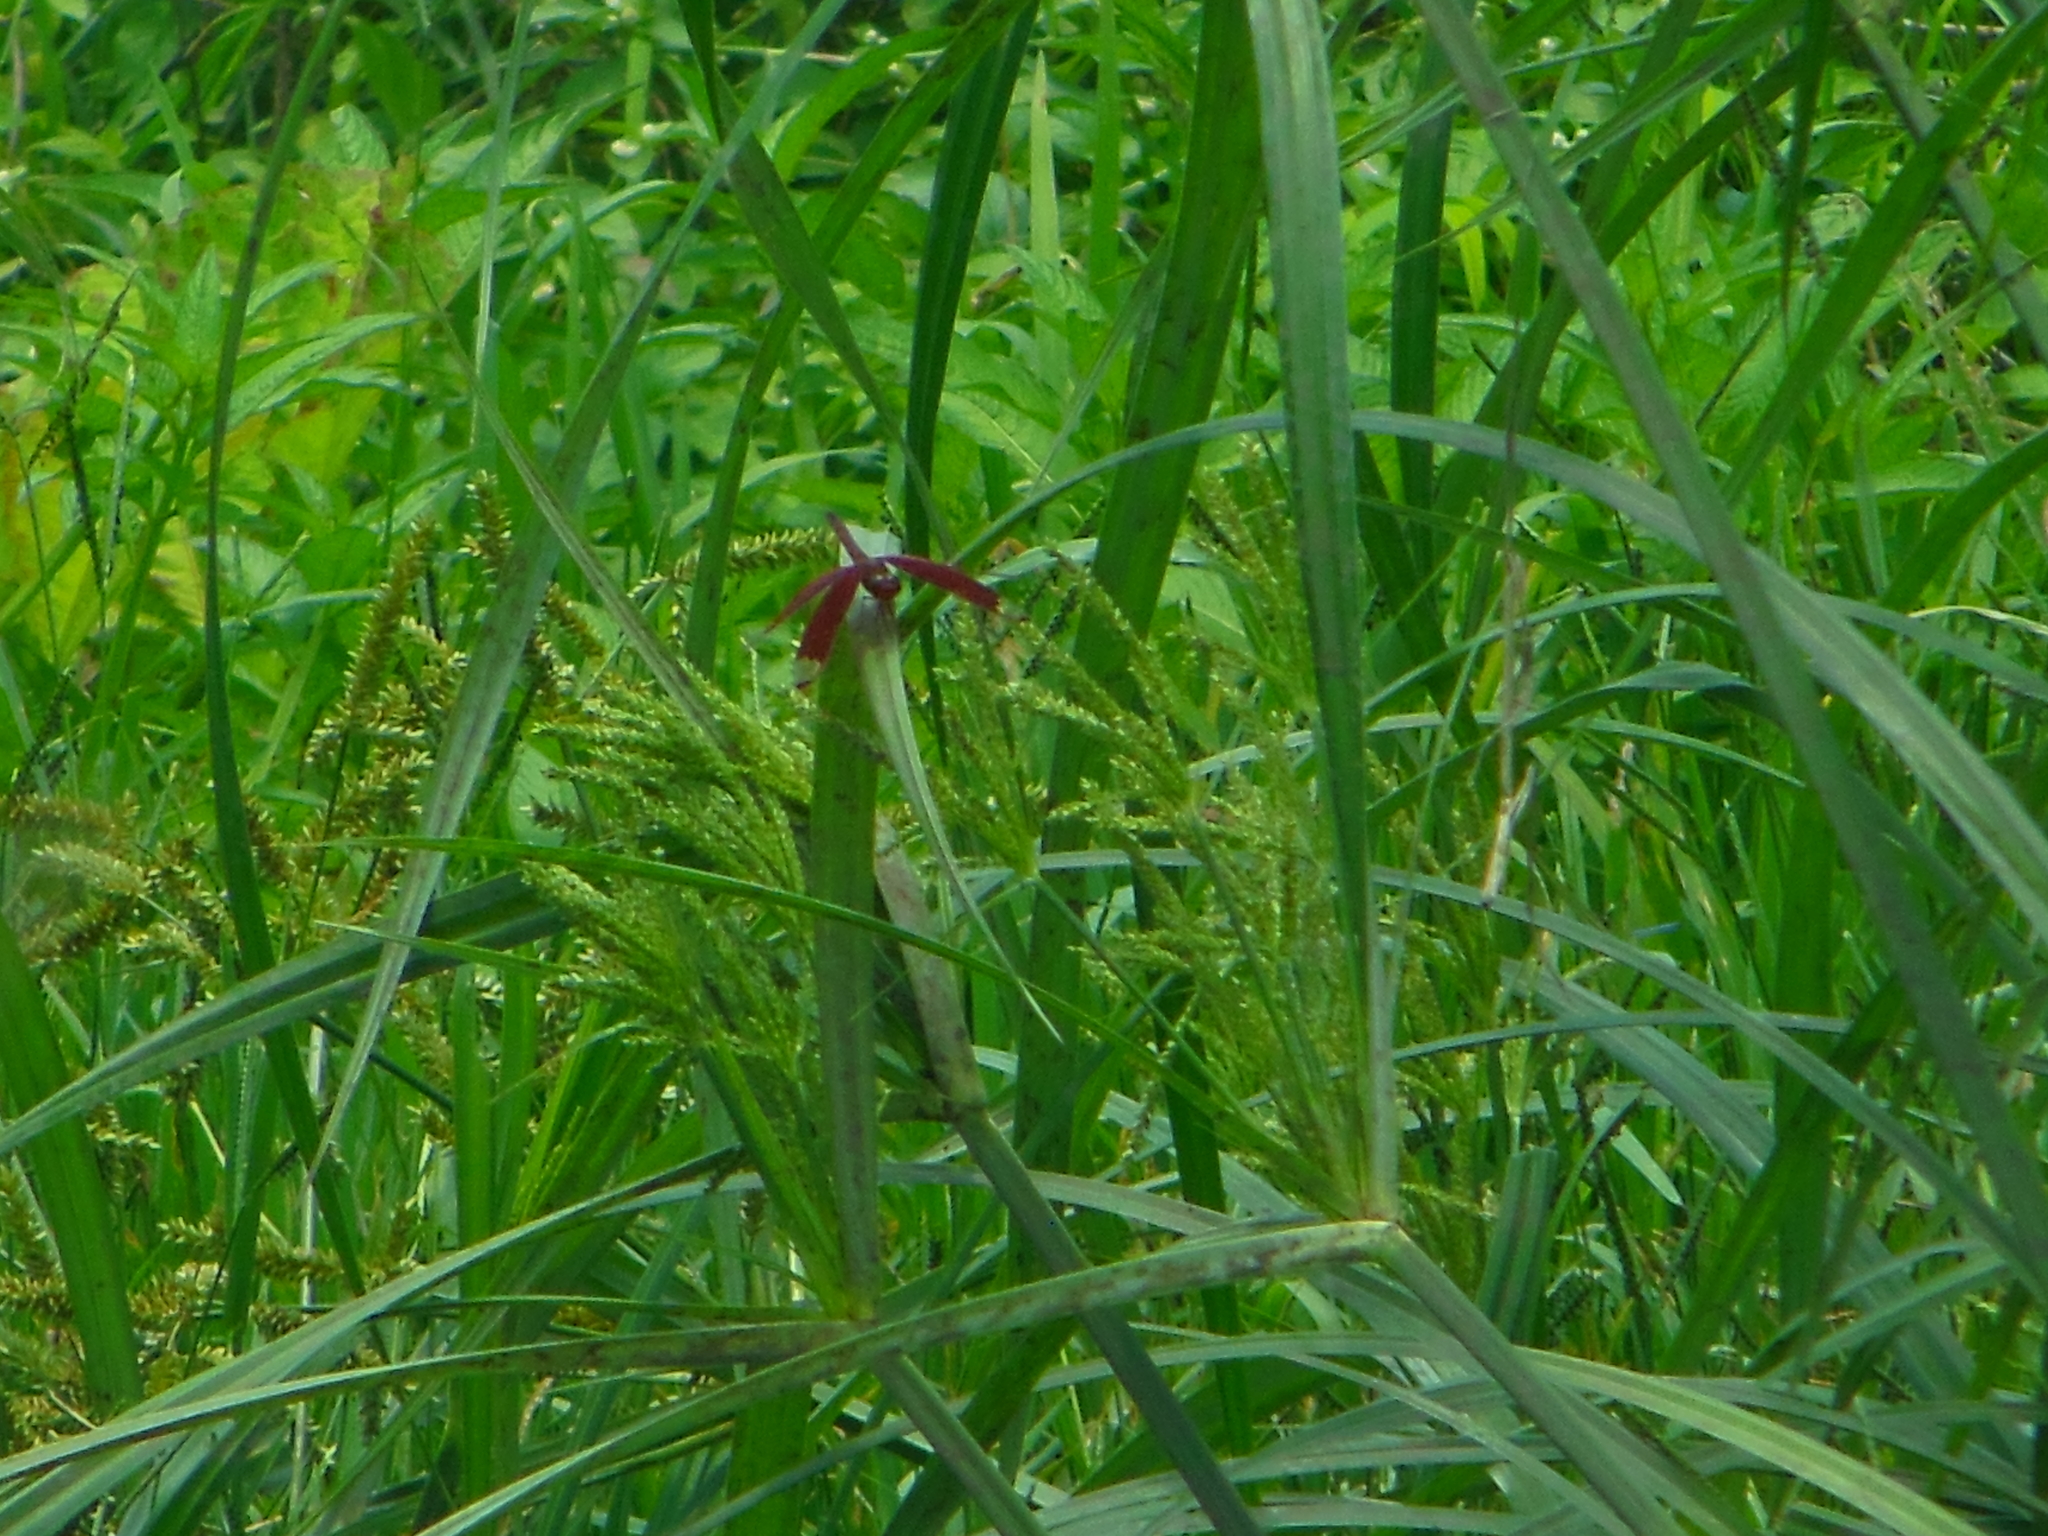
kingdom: Animalia
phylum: Arthropoda
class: Insecta
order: Odonata
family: Libellulidae
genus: Neurothemis
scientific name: Neurothemis fulvia
